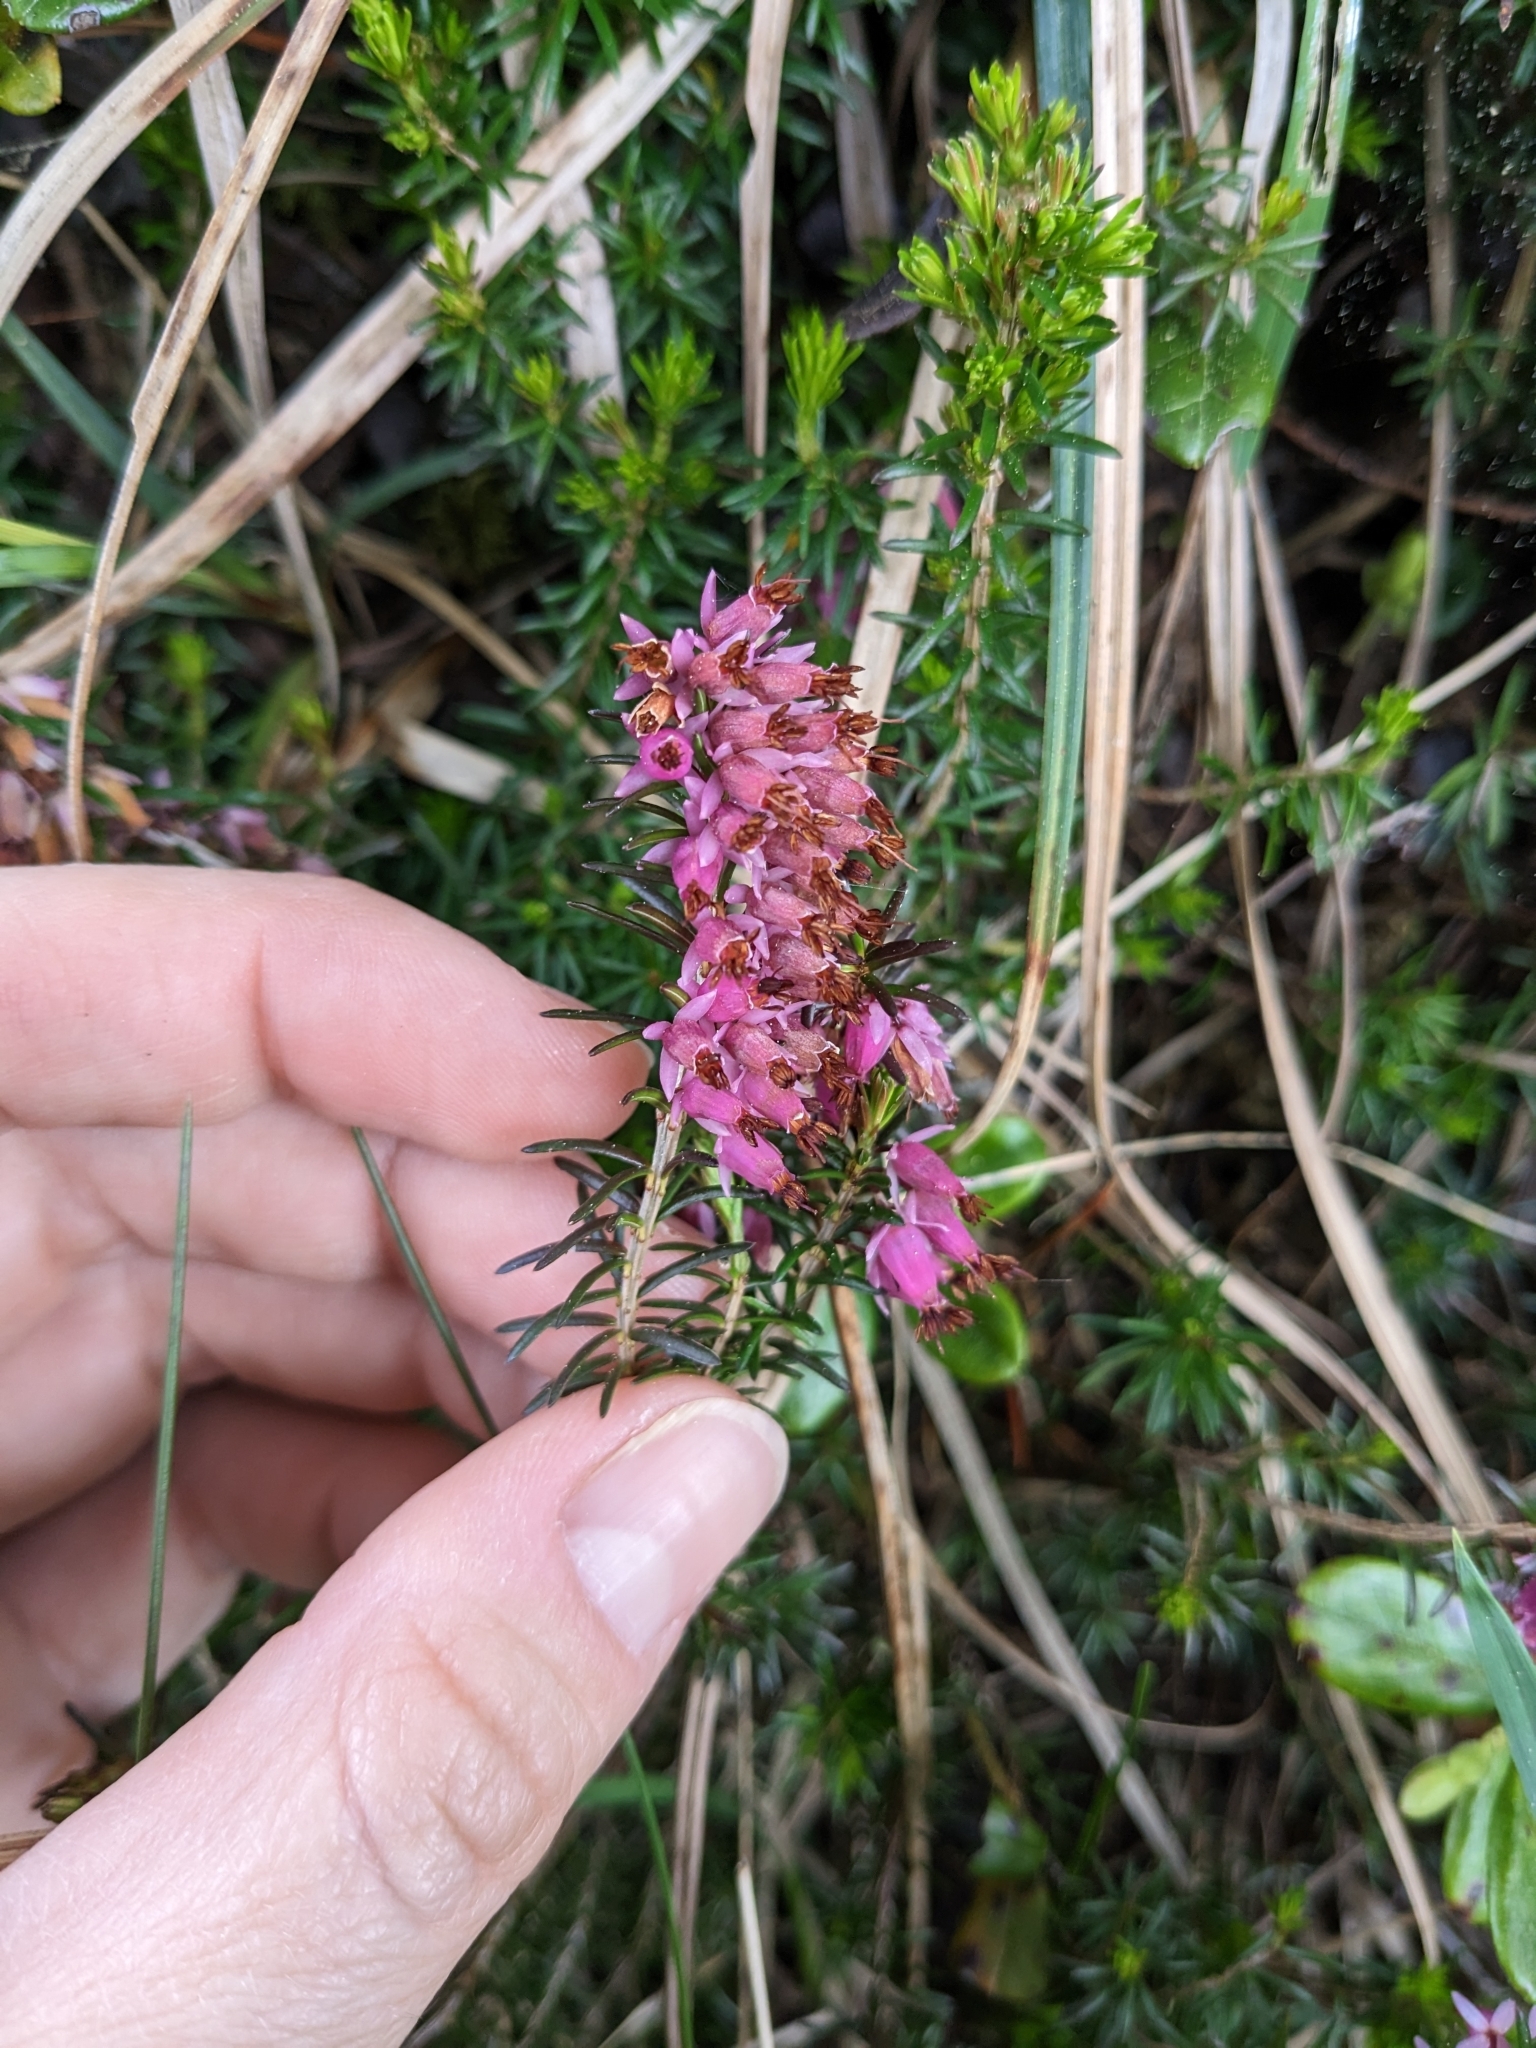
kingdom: Plantae
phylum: Tracheophyta
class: Magnoliopsida
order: Ericales
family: Ericaceae
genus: Erica
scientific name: Erica carnea
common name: Winter heath
